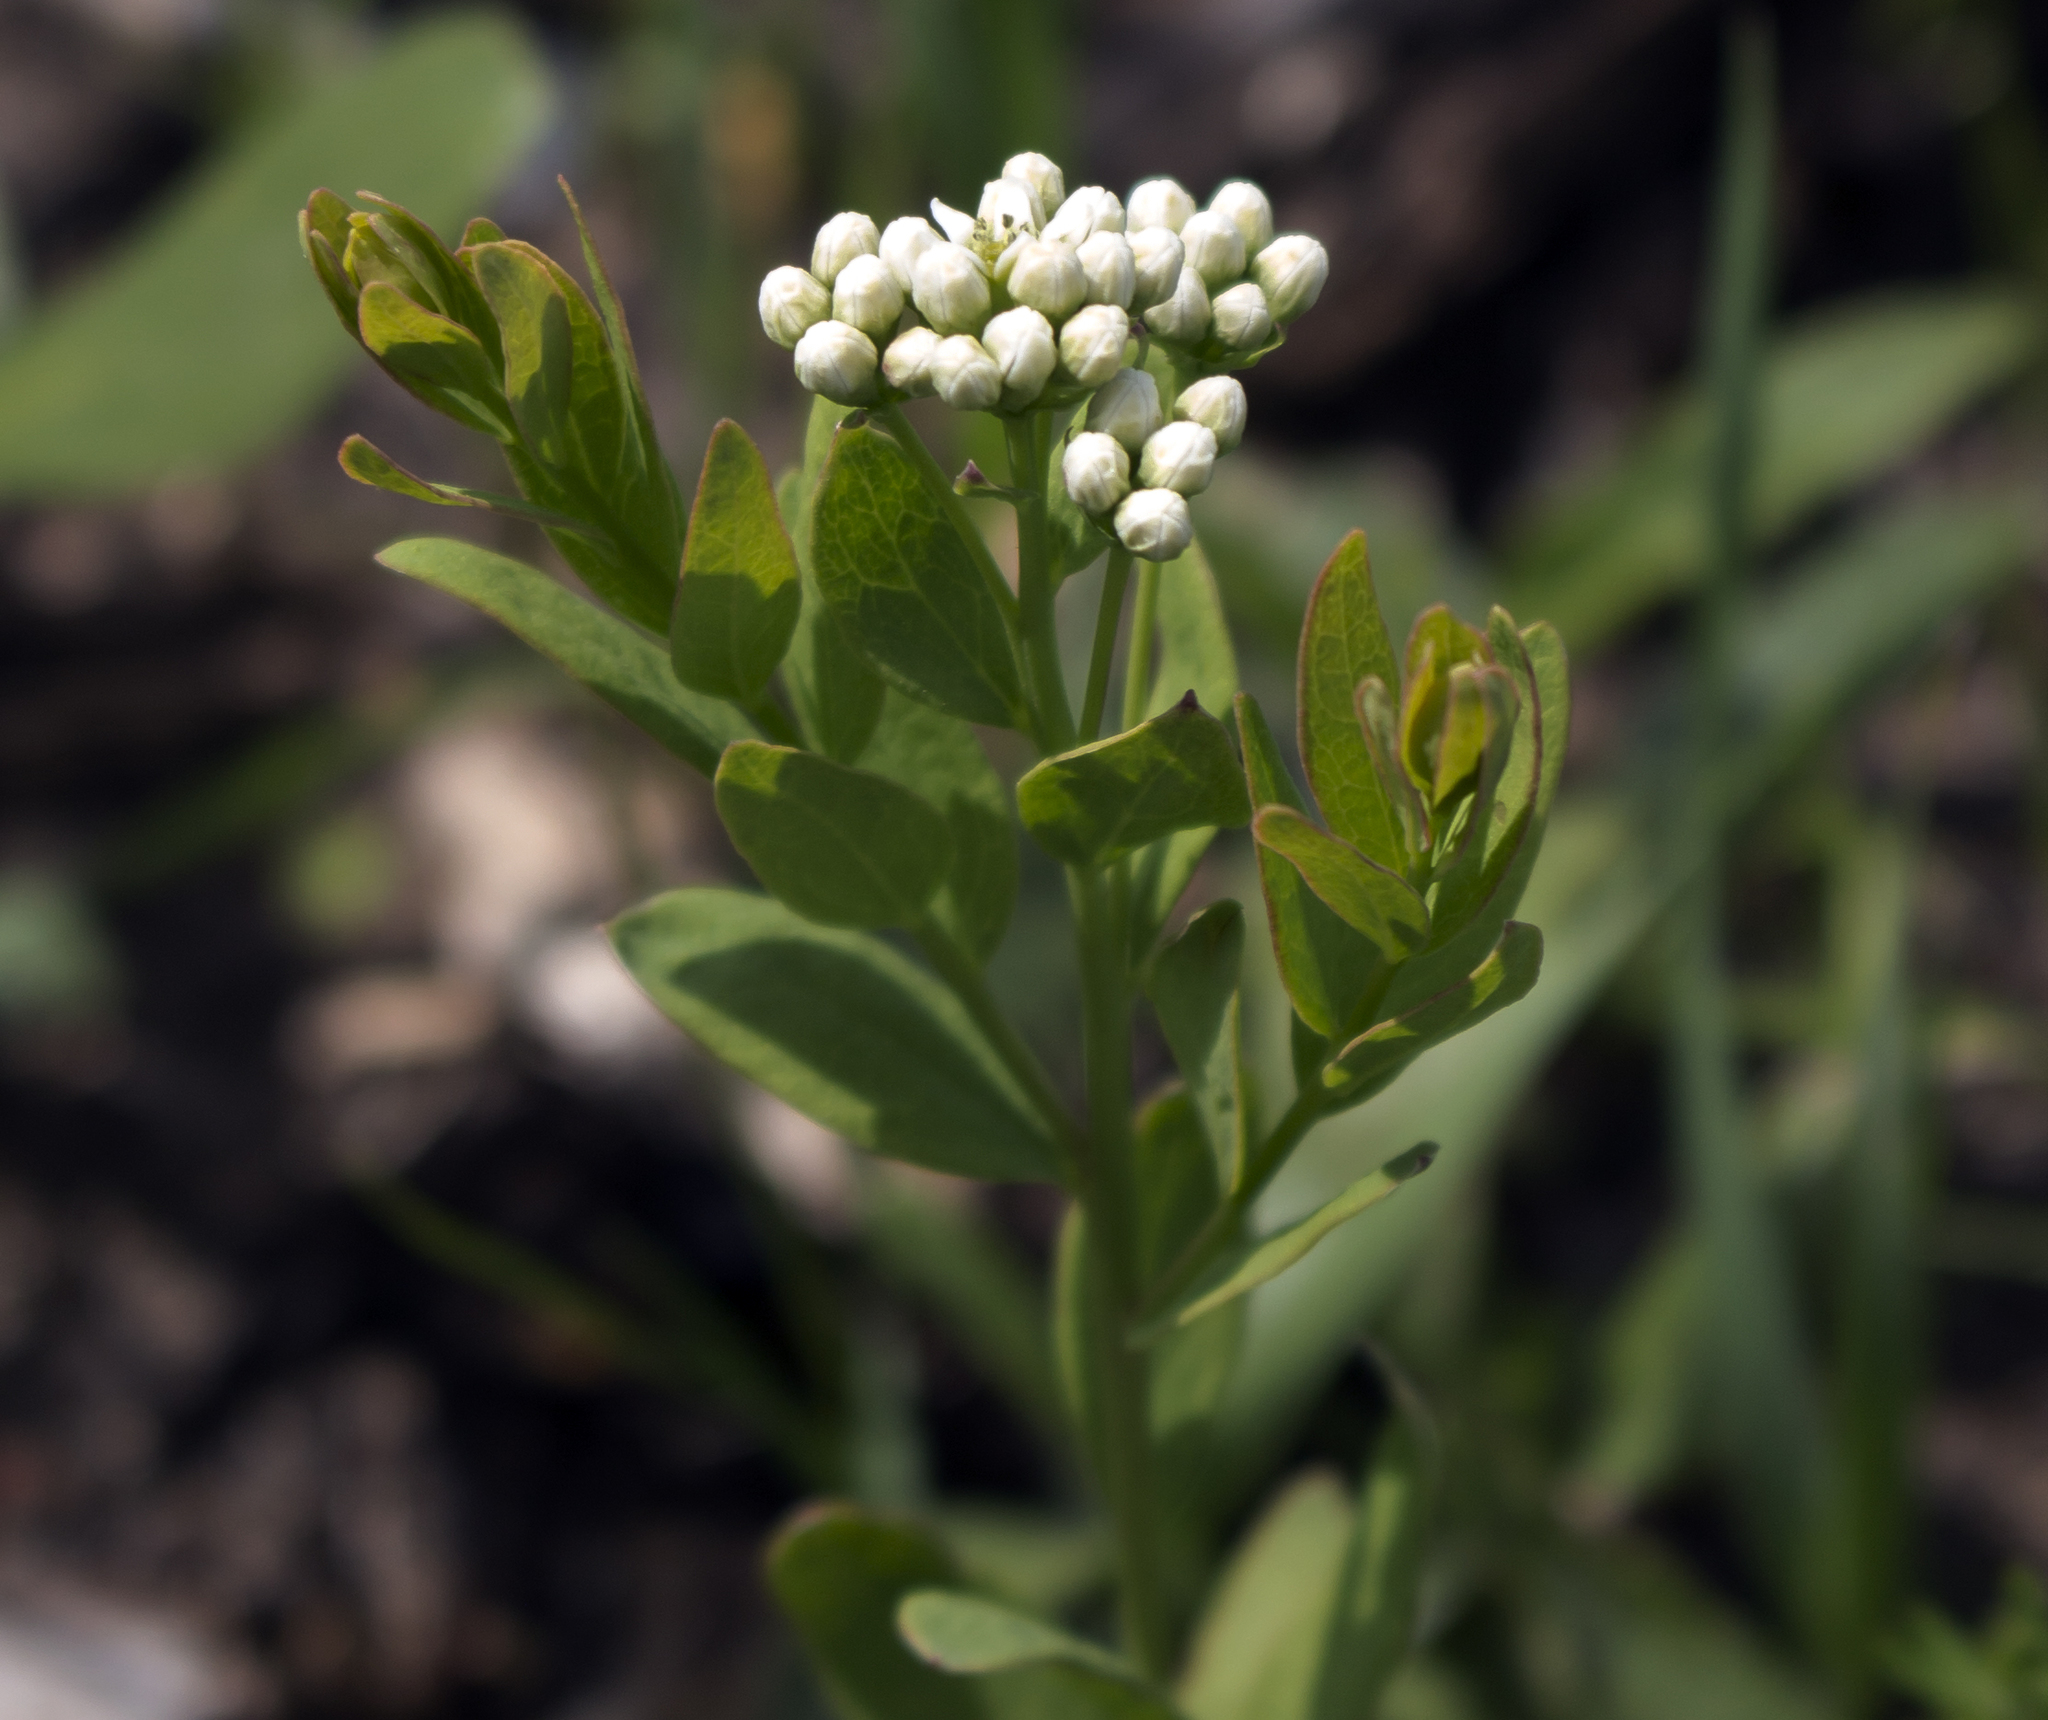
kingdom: Plantae
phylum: Tracheophyta
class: Magnoliopsida
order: Santalales
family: Comandraceae
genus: Comandra
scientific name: Comandra umbellata
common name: Bastard toadflax
